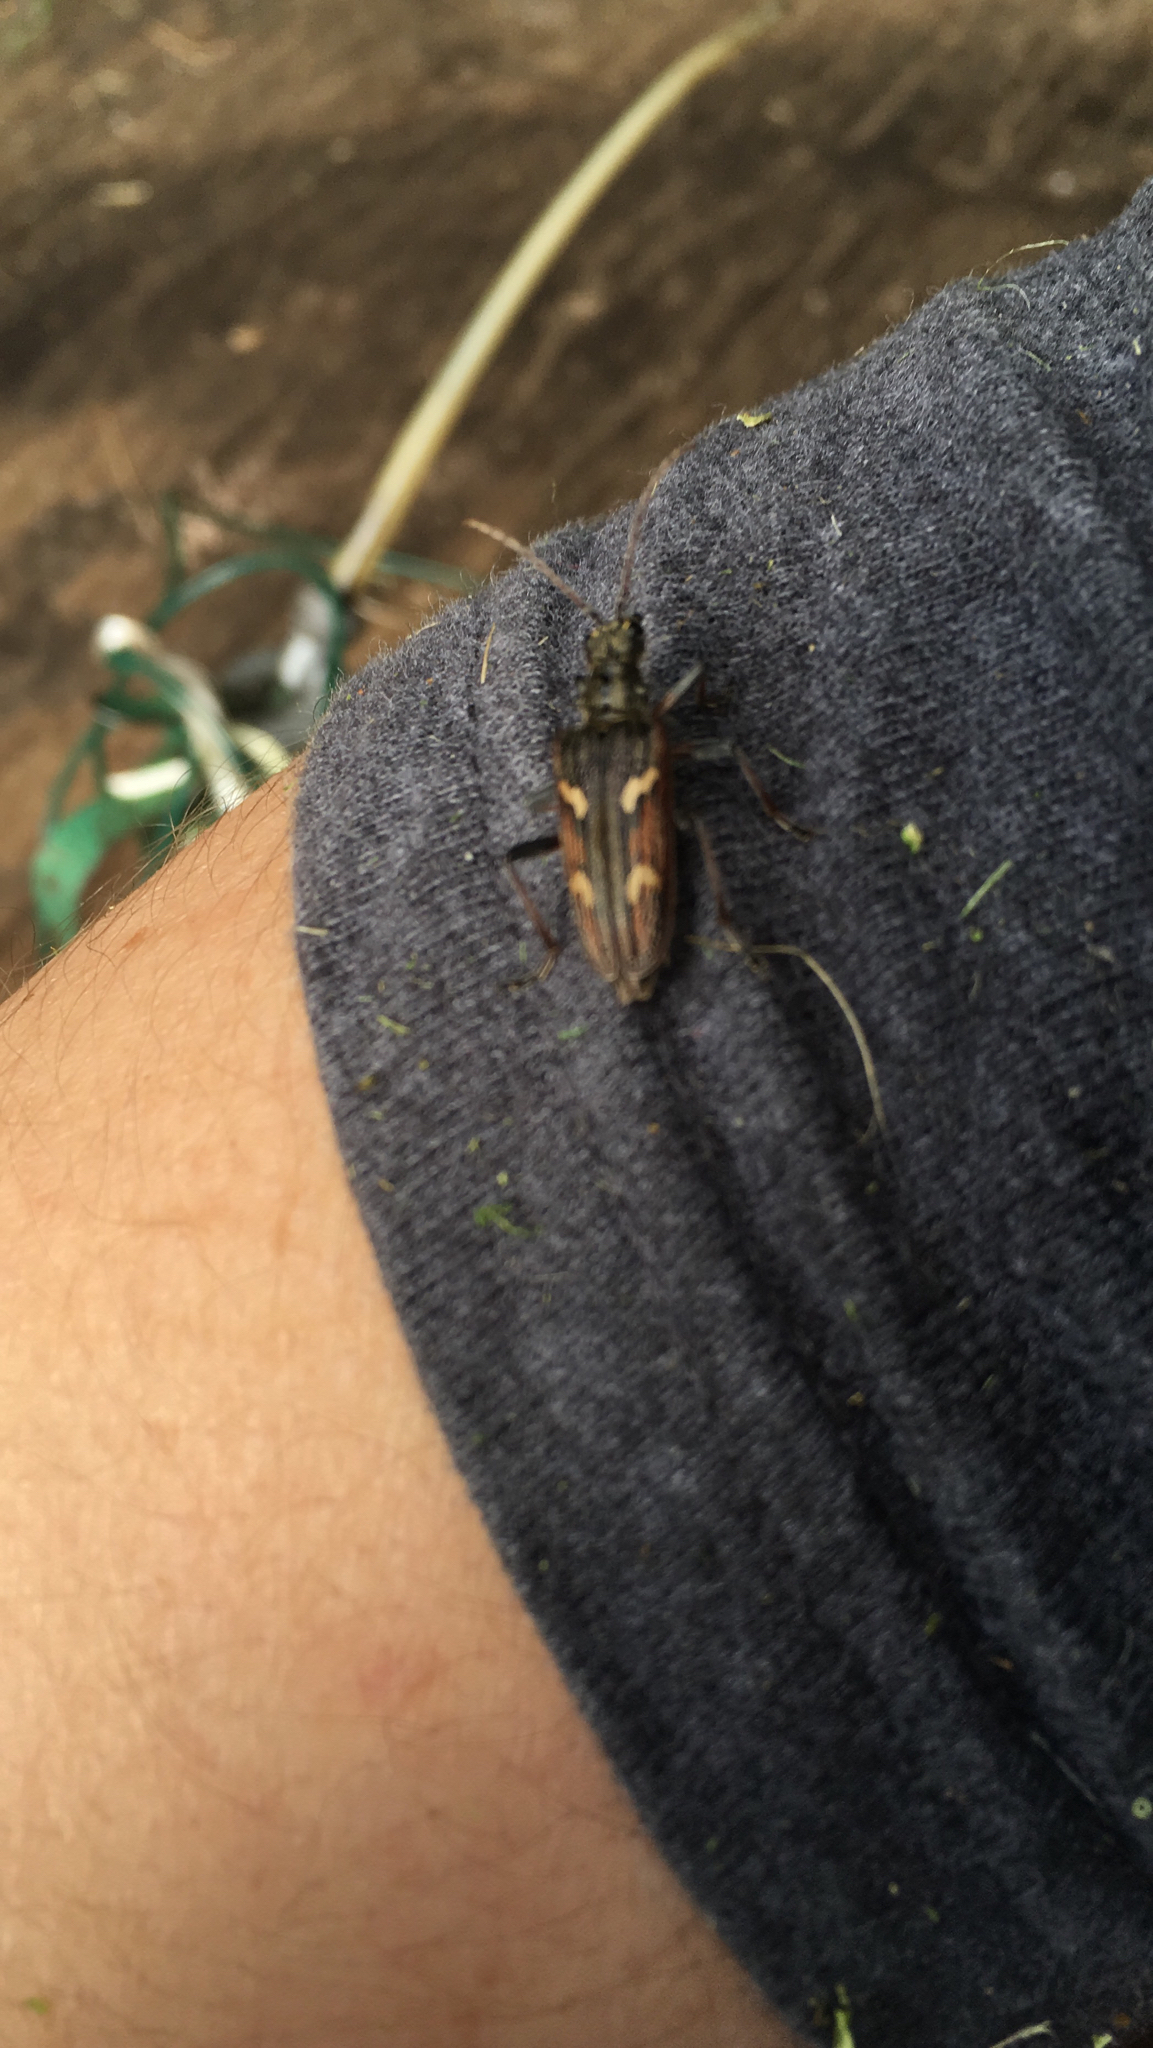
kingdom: Animalia
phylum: Arthropoda
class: Insecta
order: Coleoptera
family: Cerambycidae
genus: Rhagium
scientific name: Rhagium bifasciatum
